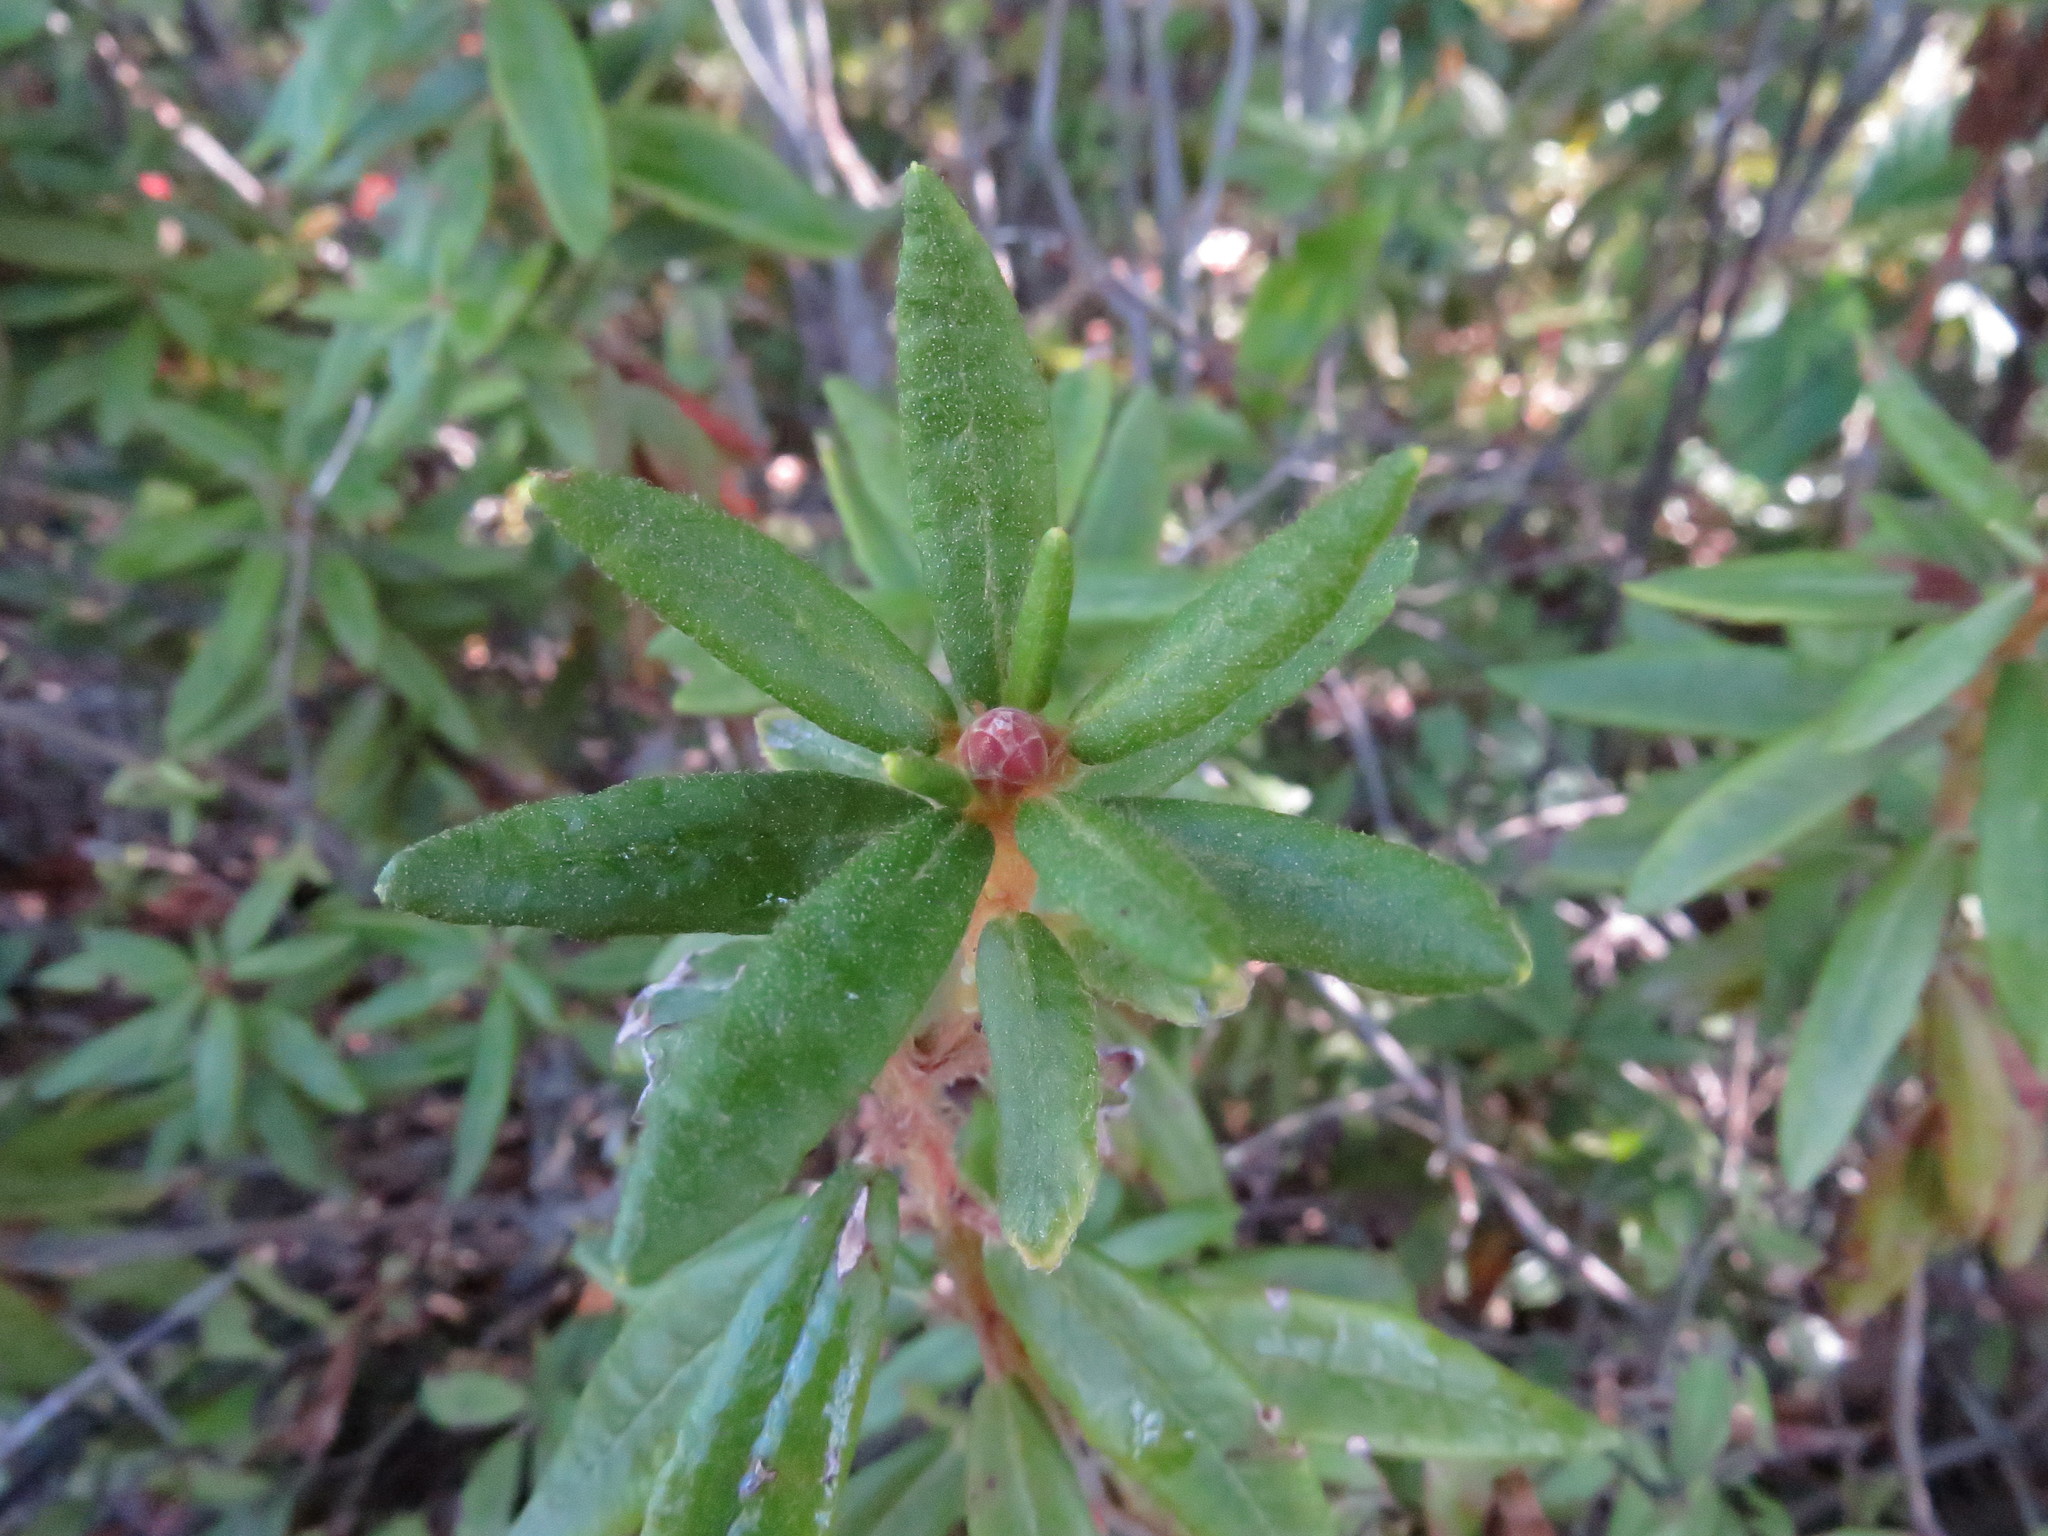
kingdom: Plantae
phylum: Tracheophyta
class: Magnoliopsida
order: Ericales
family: Ericaceae
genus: Rhododendron
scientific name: Rhododendron canadense
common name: Rhodora
